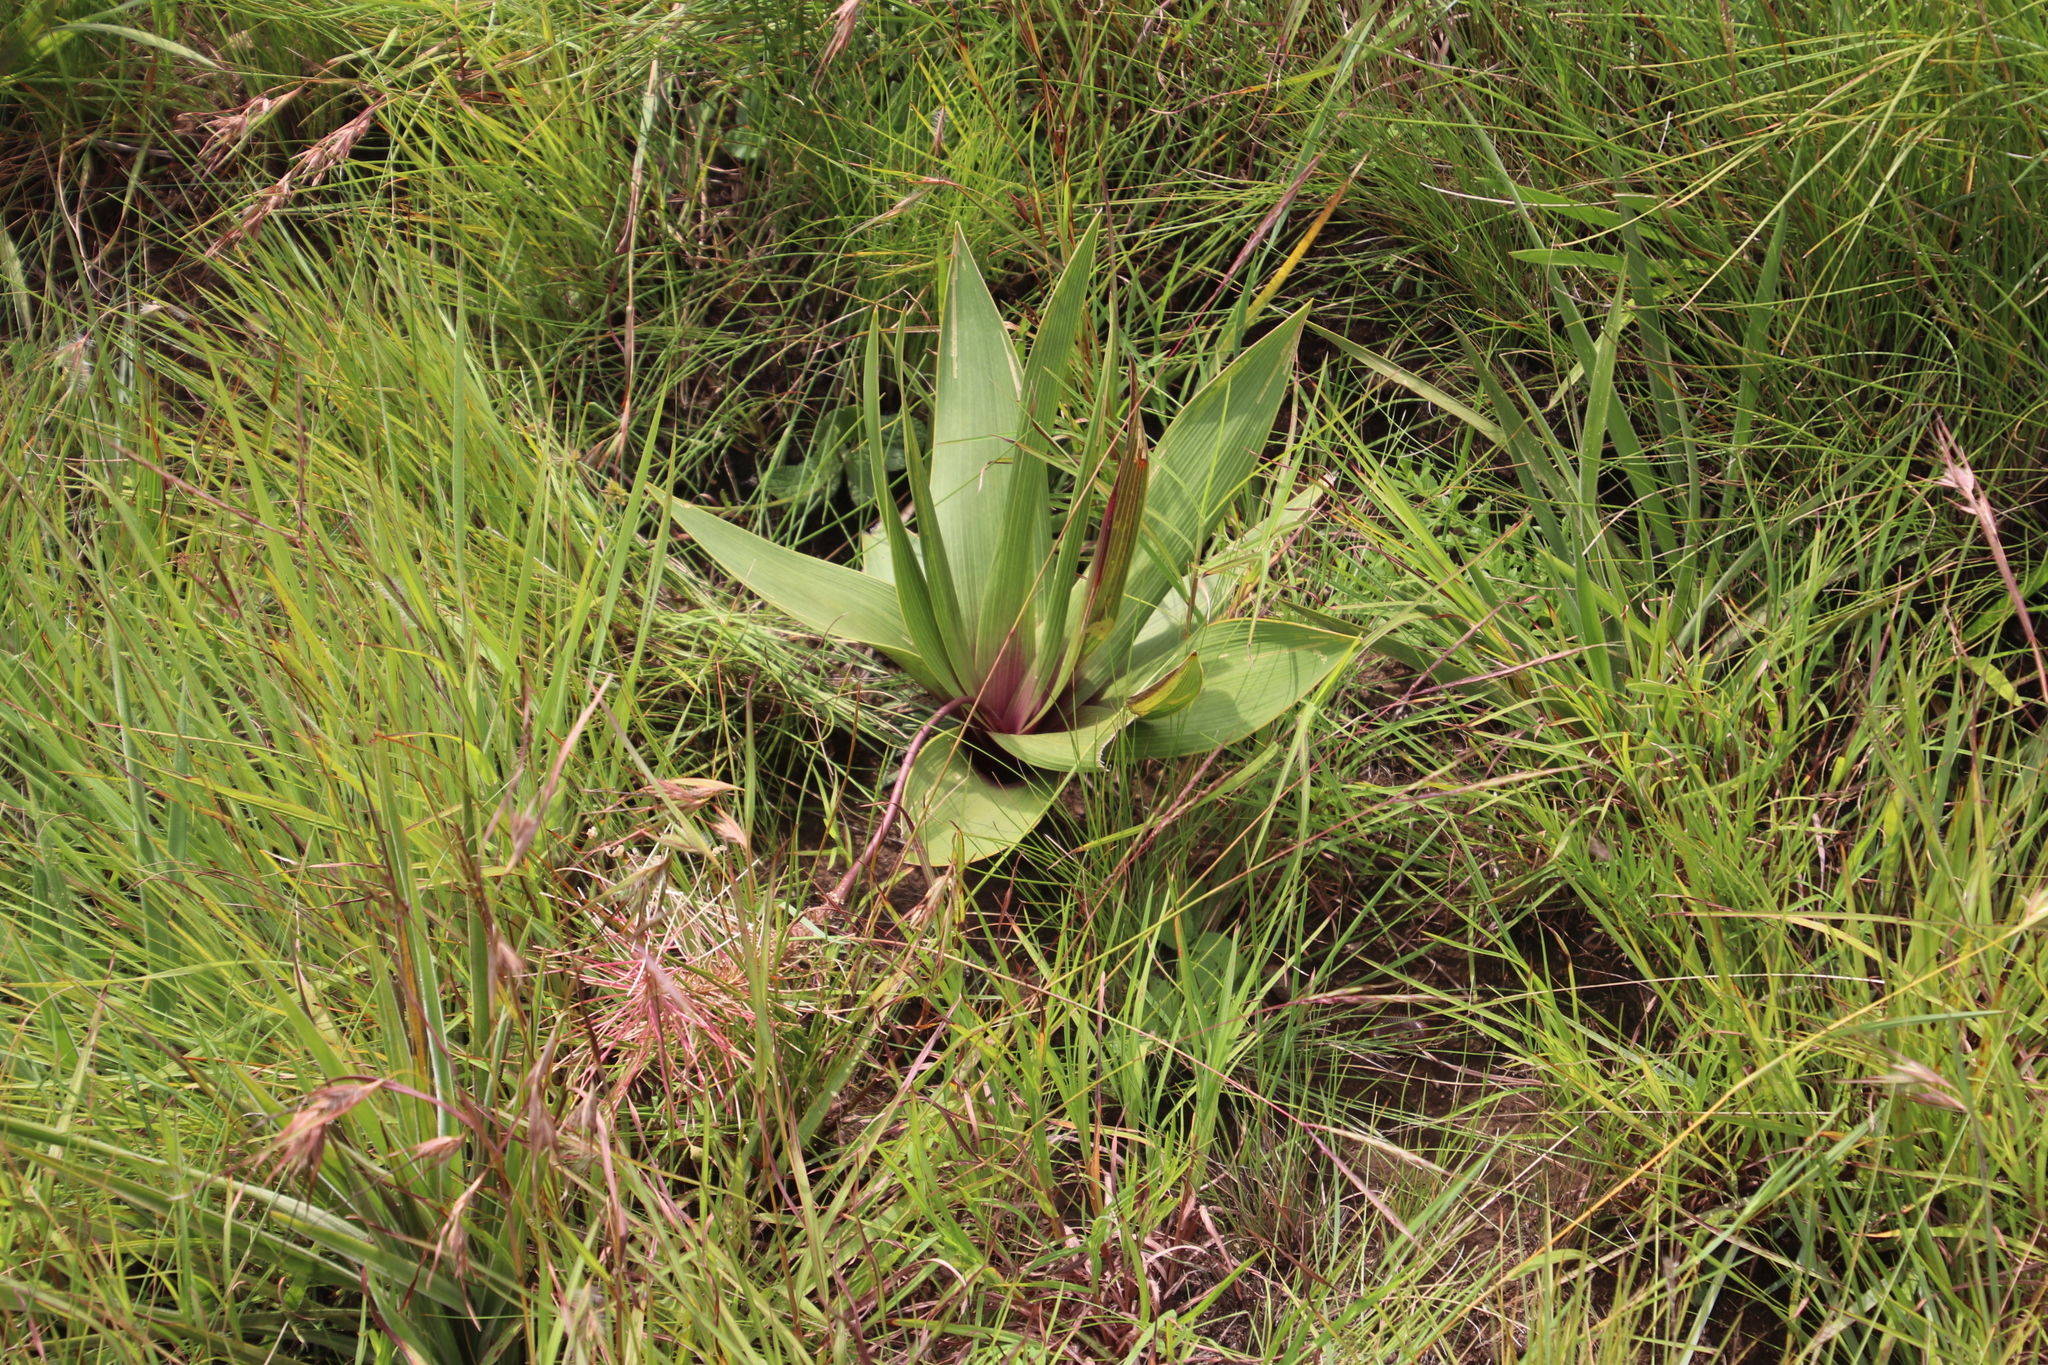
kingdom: Plantae
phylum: Tracheophyta
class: Liliopsida
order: Asparagales
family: Asparagaceae
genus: Schizocarphus
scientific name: Schizocarphus nervosus
